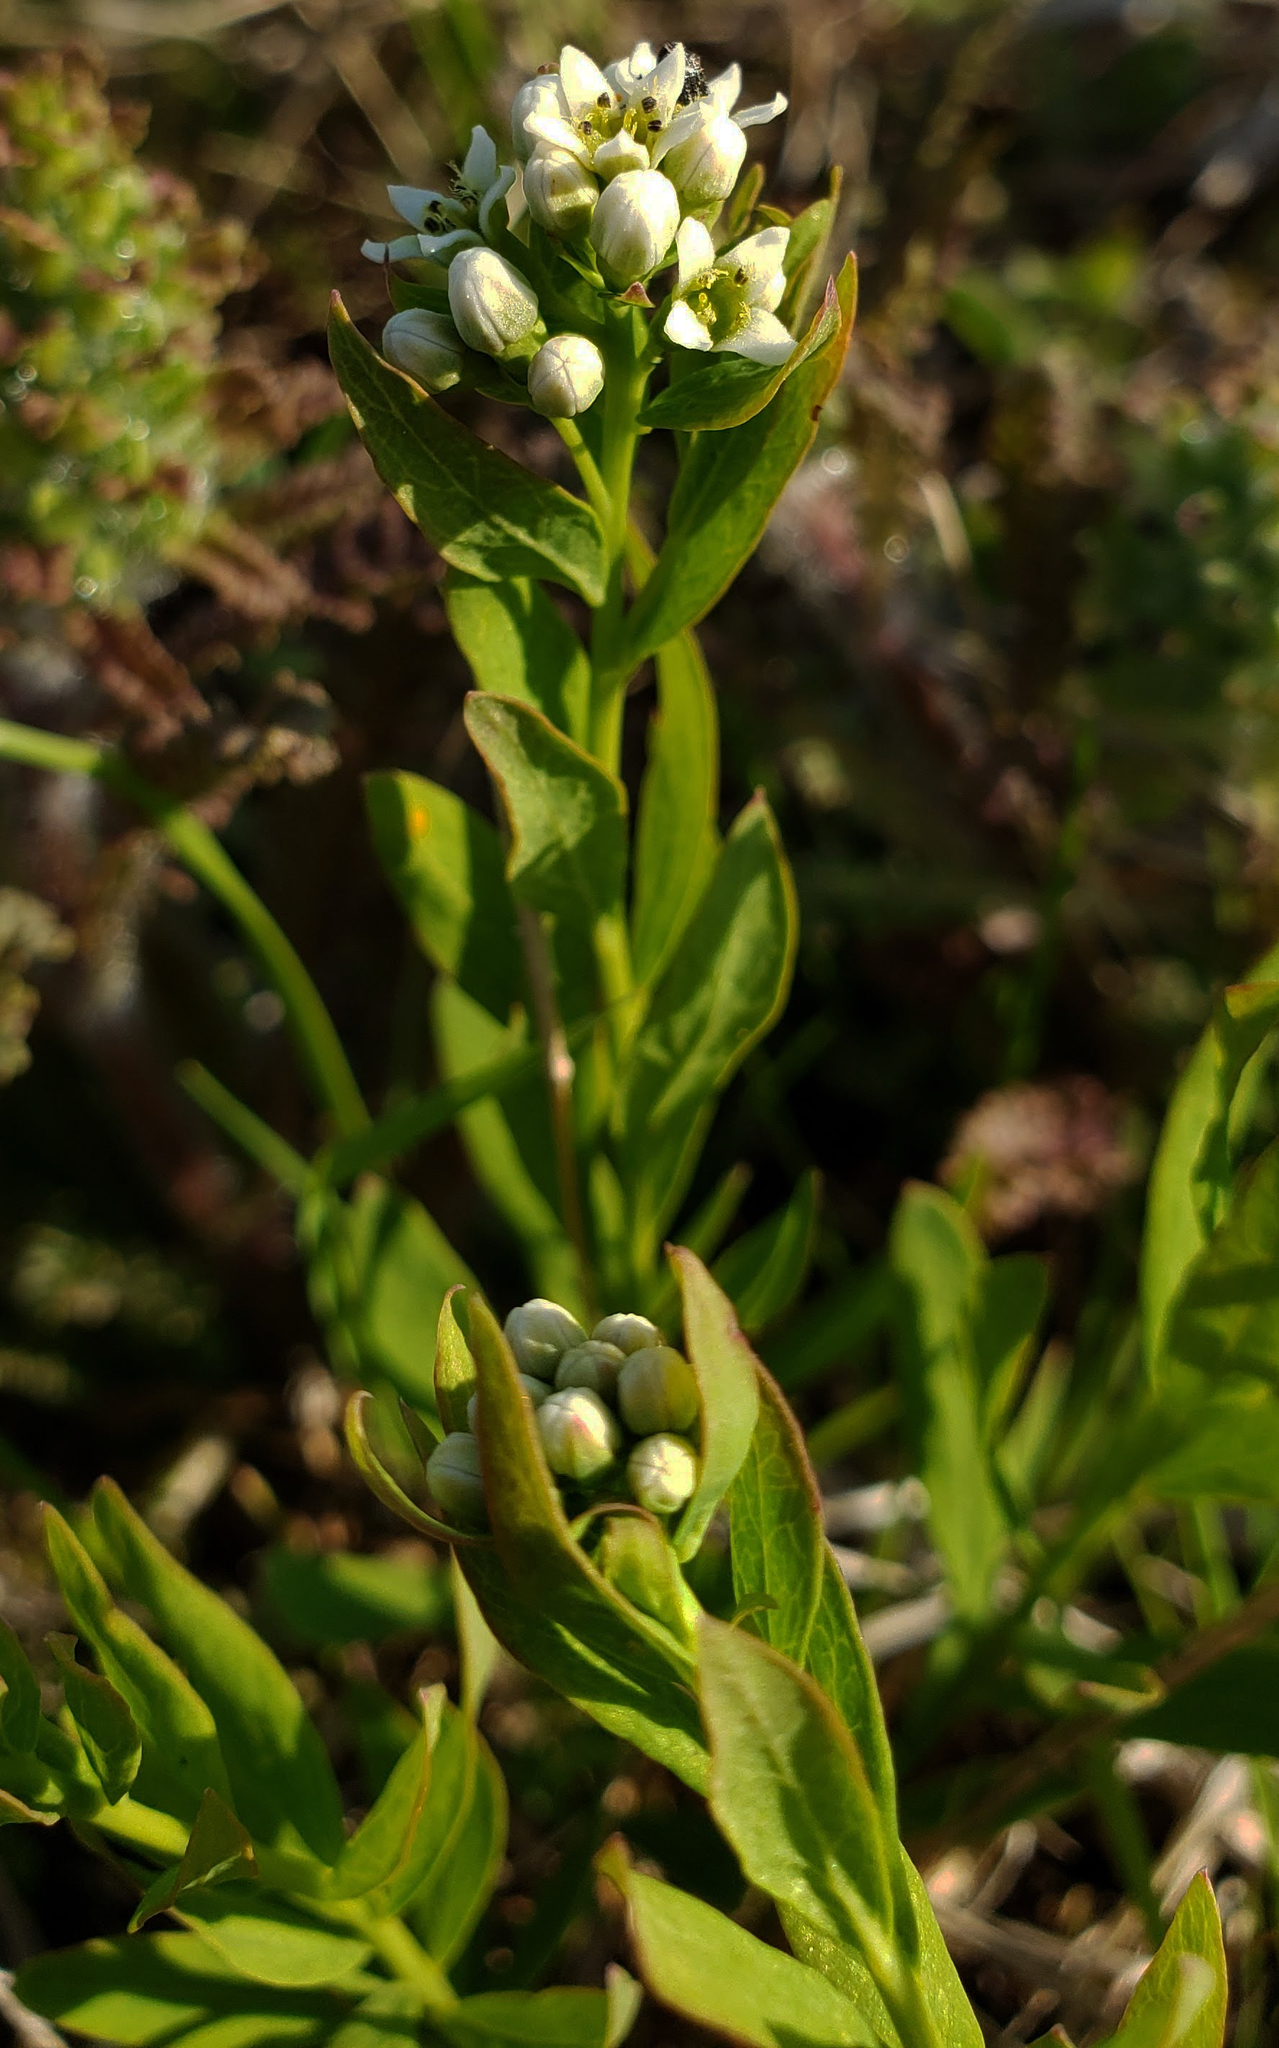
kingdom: Plantae
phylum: Tracheophyta
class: Magnoliopsida
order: Santalales
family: Comandraceae
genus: Comandra
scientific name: Comandra umbellata
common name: Bastard toadflax
